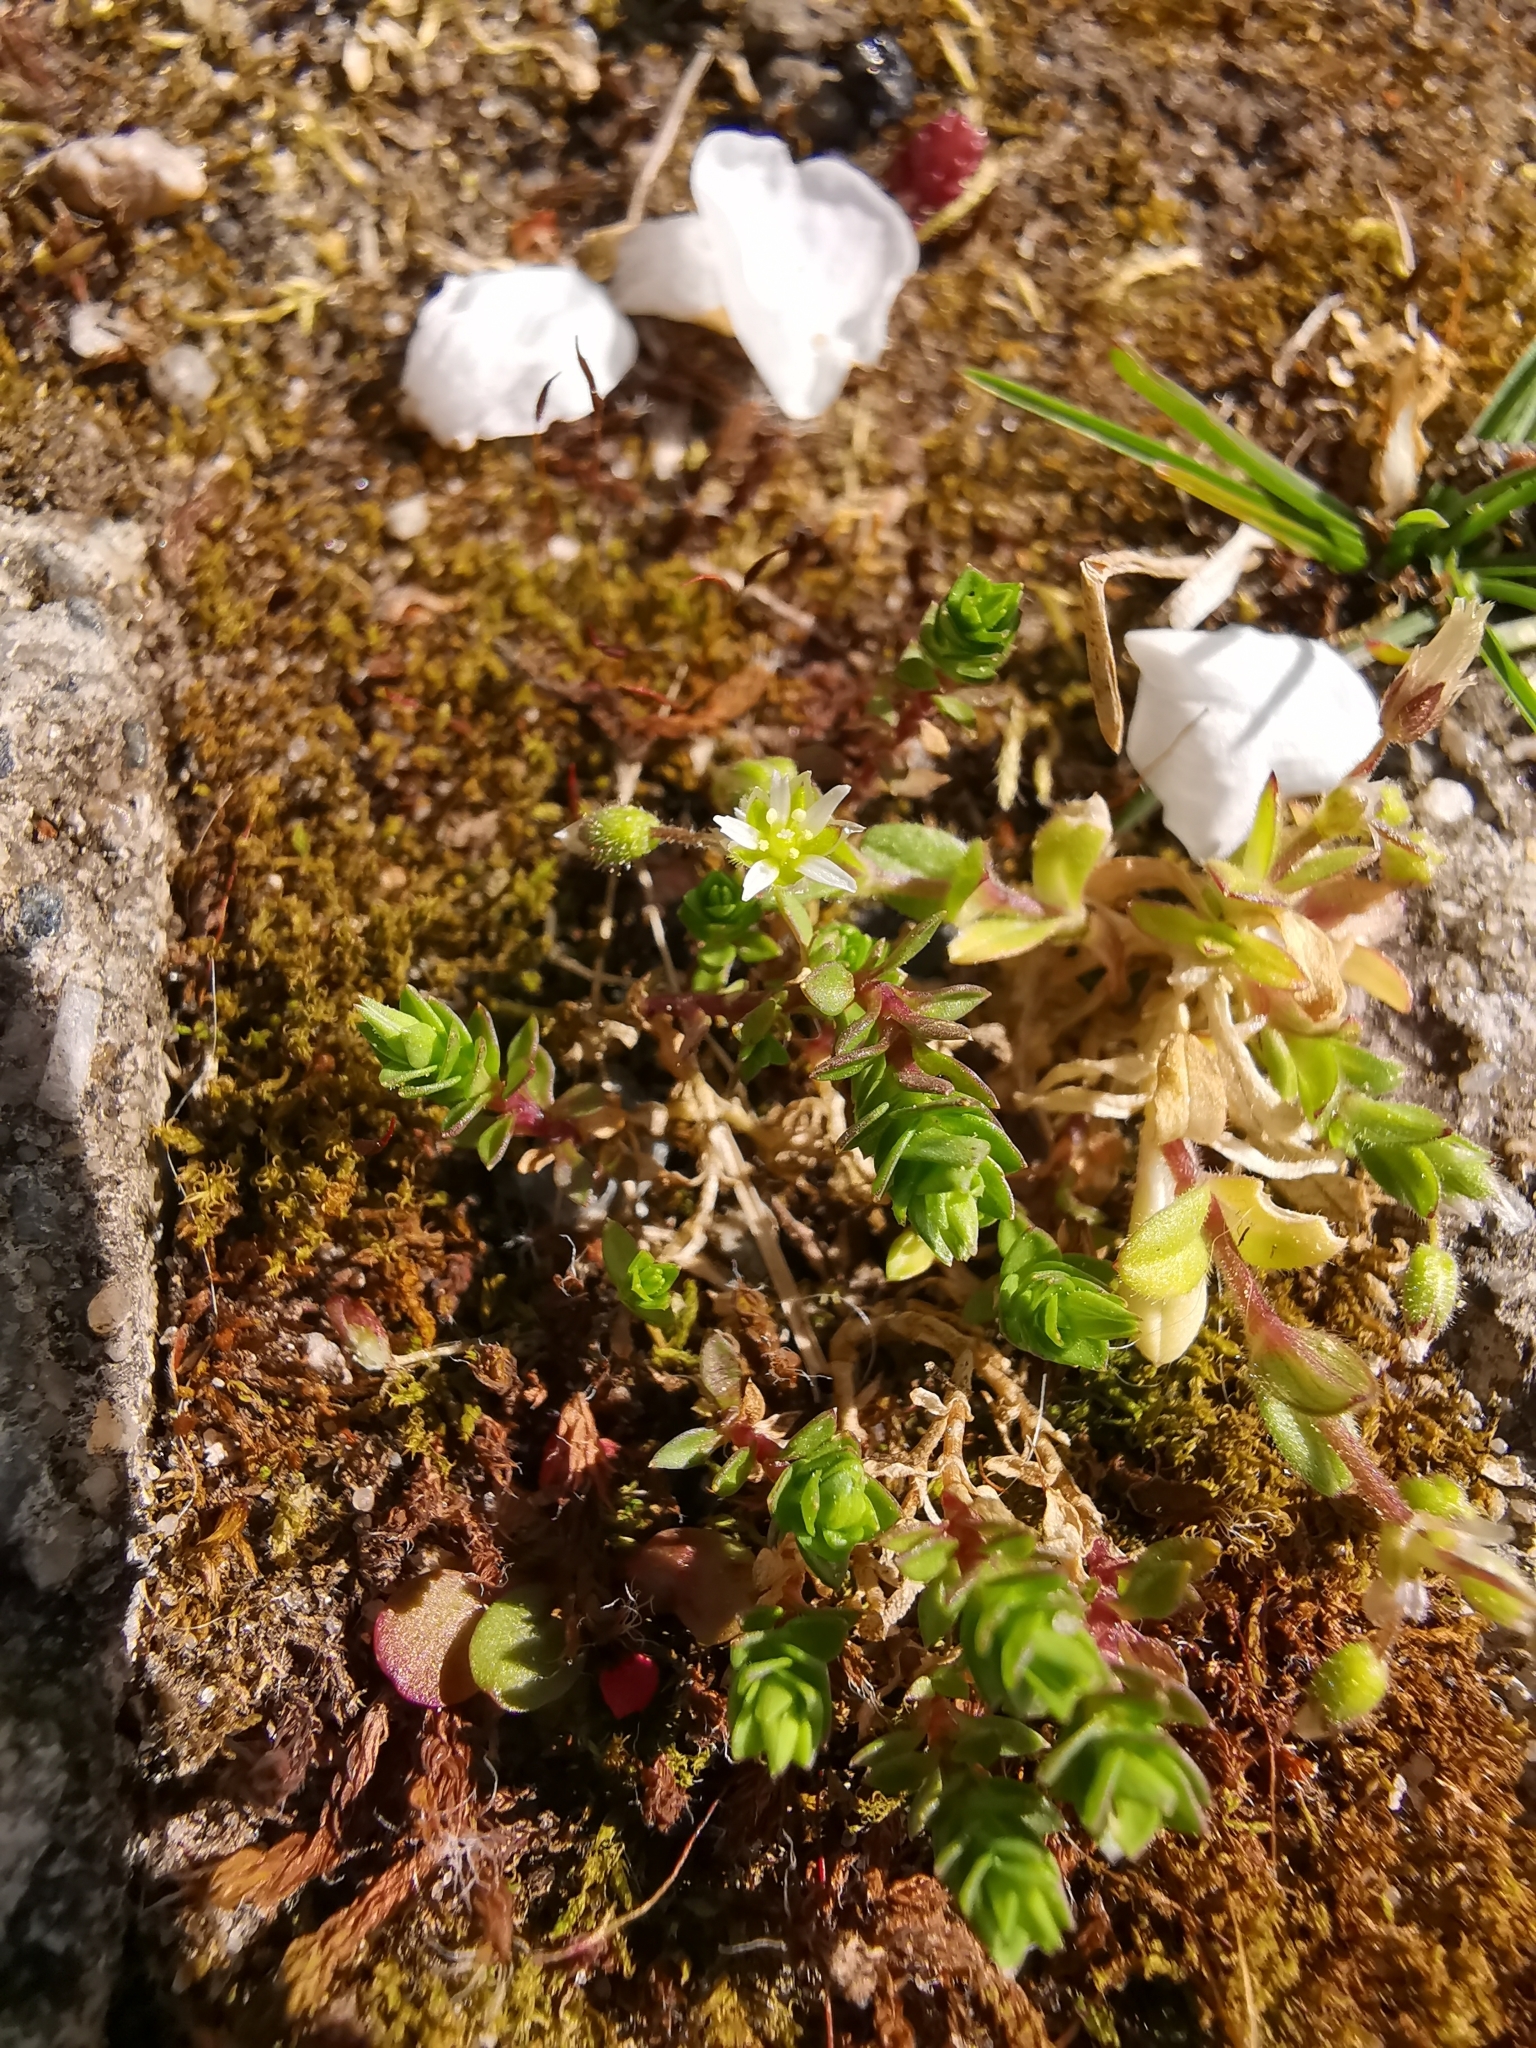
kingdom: Plantae
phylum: Tracheophyta
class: Magnoliopsida
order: Saxifragales
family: Crassulaceae
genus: Sedum
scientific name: Sedum acre
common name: Biting stonecrop
